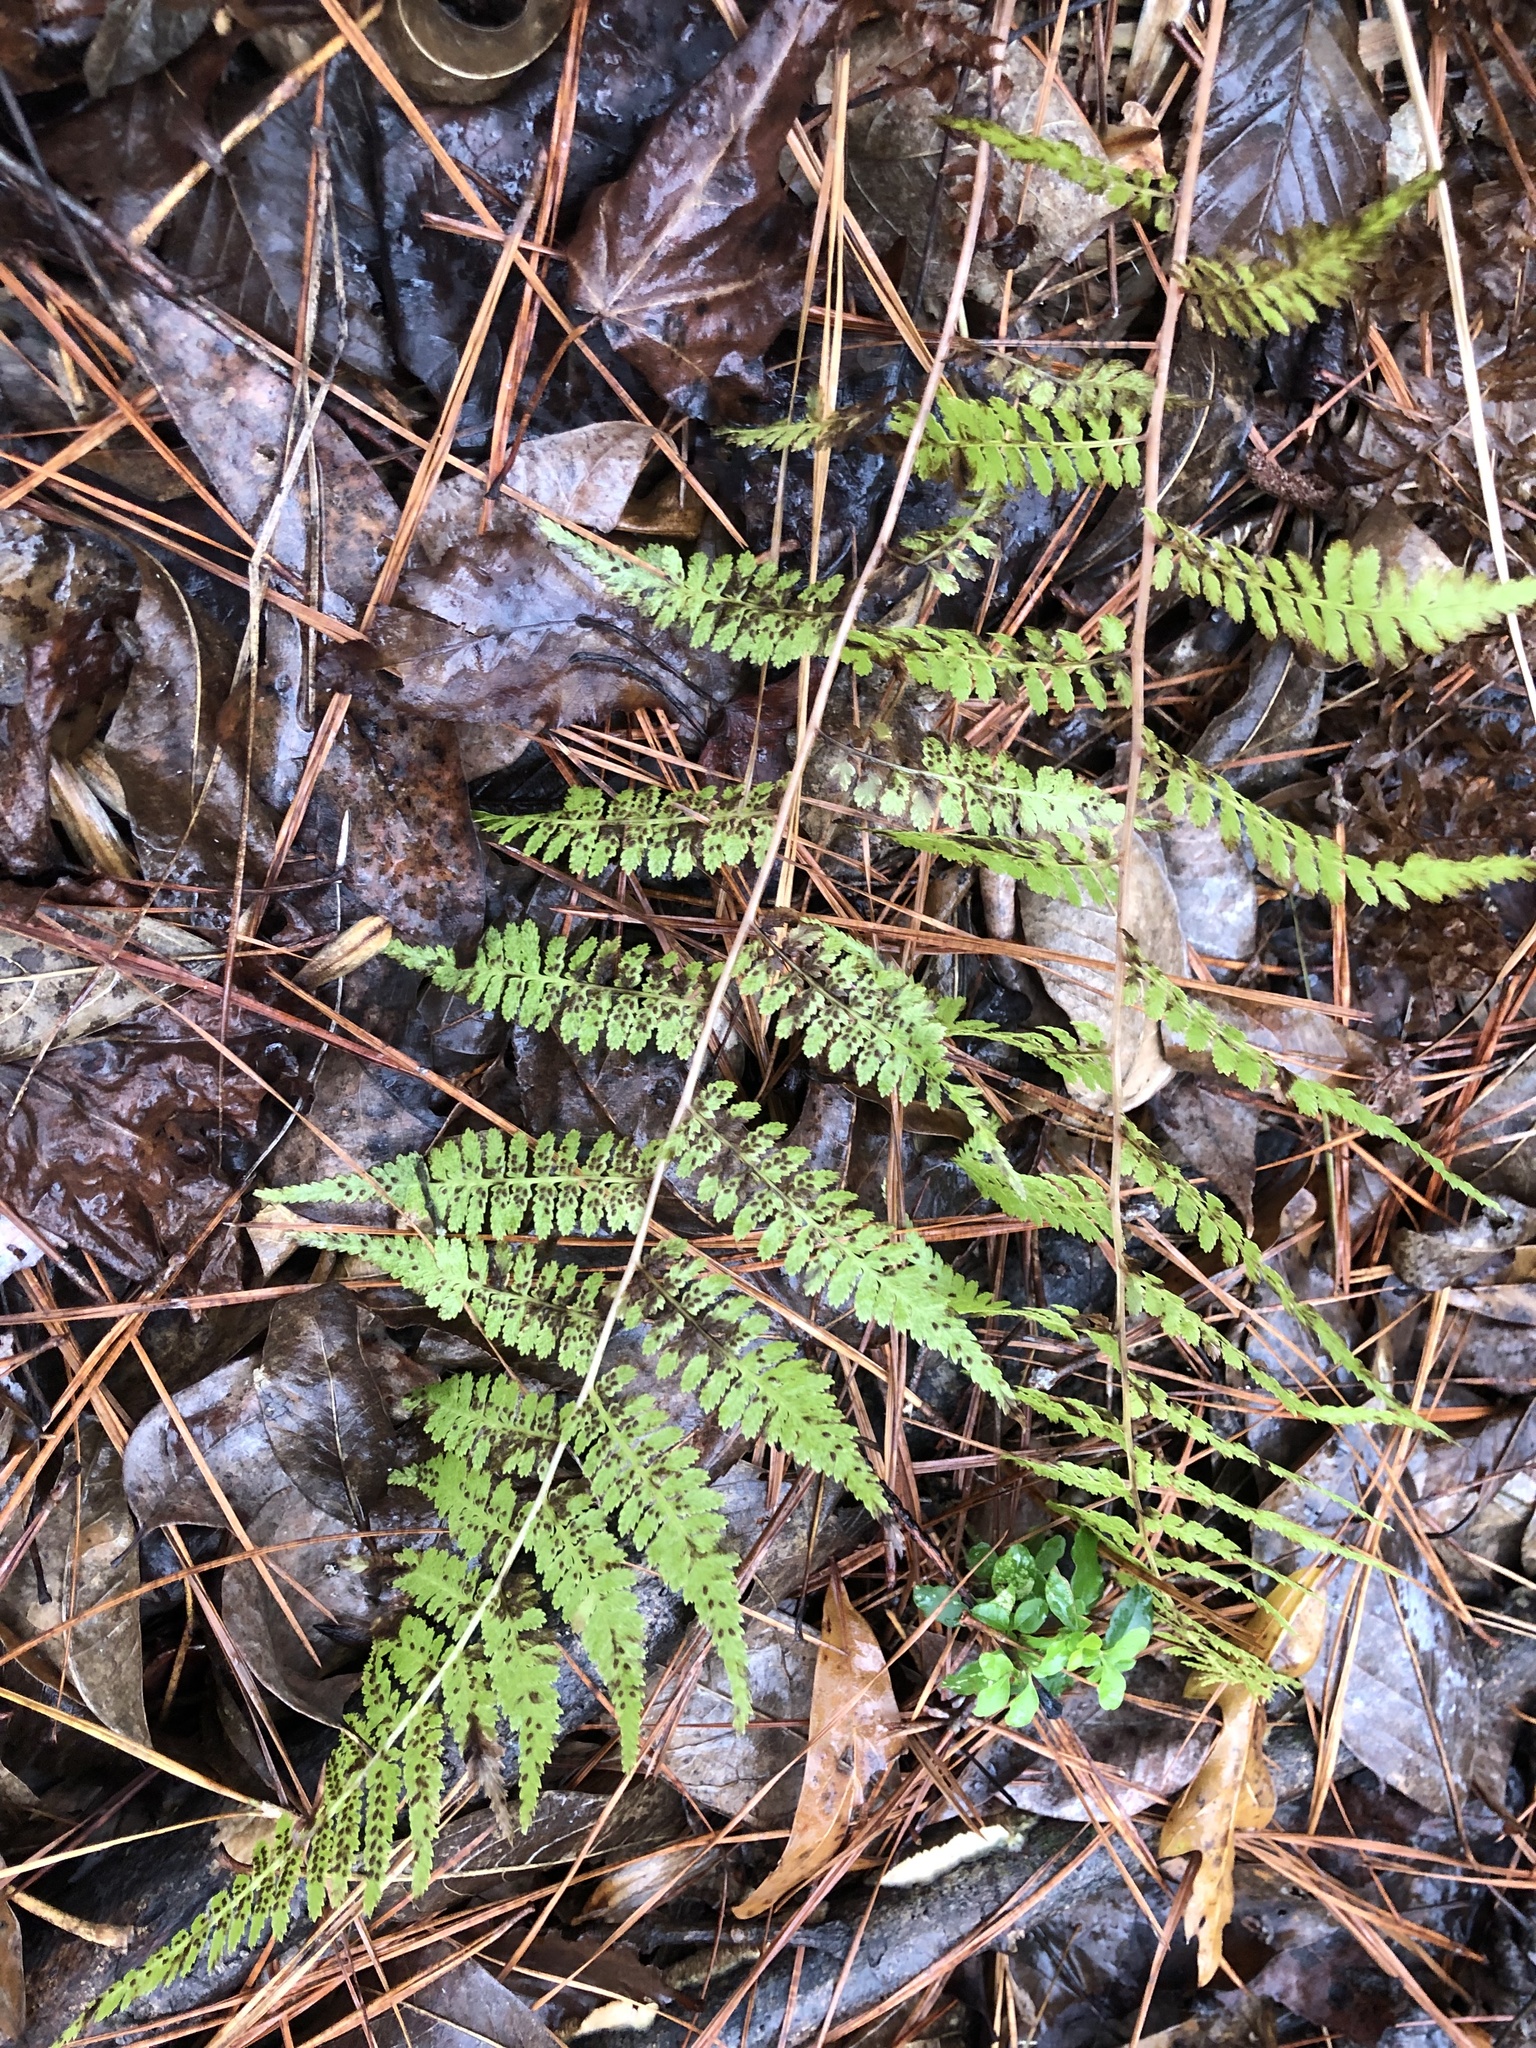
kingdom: Plantae
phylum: Tracheophyta
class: Polypodiopsida
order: Polypodiales
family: Athyriaceae
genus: Athyrium
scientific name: Athyrium asplenioides
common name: Southern lady fern
